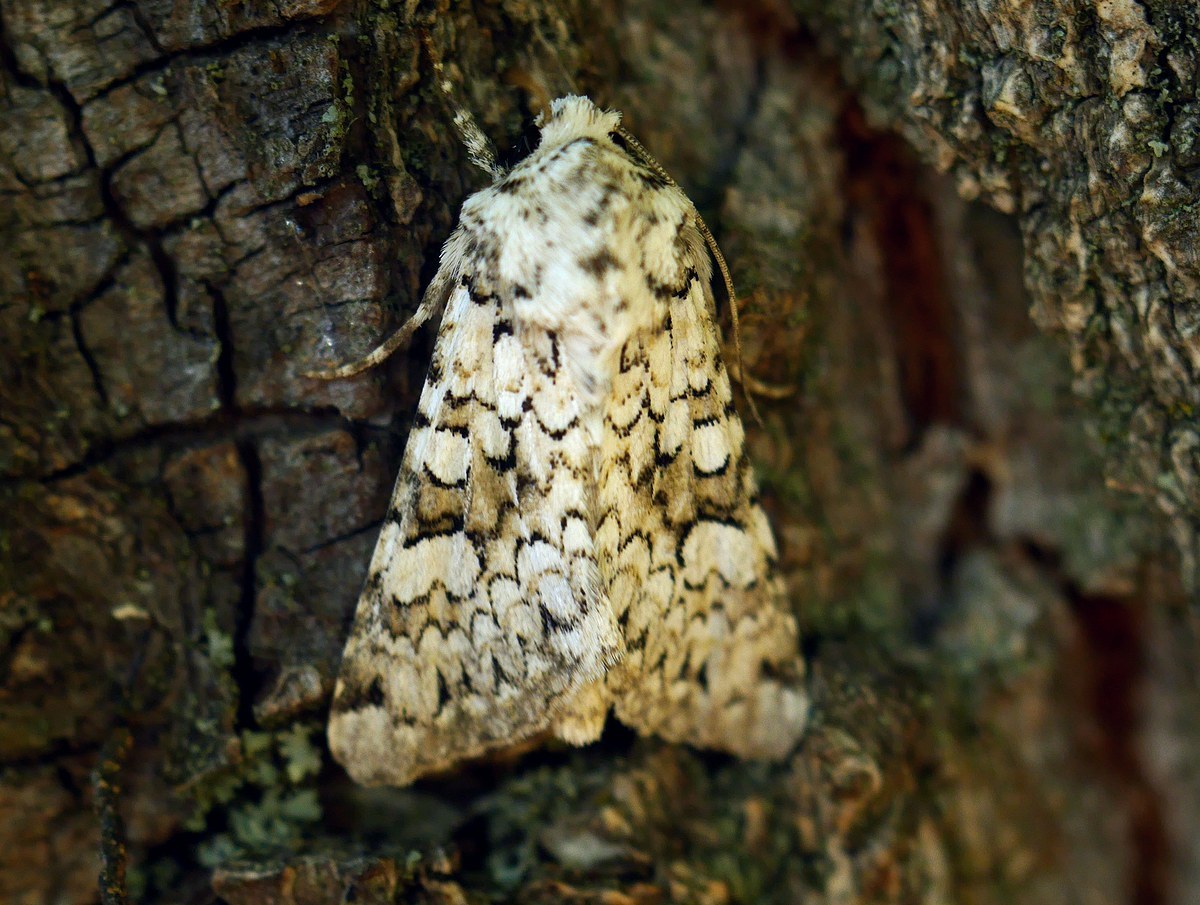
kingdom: Animalia
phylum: Arthropoda
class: Insecta
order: Lepidoptera
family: Noctuidae
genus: Hecatera
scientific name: Hecatera cappa
